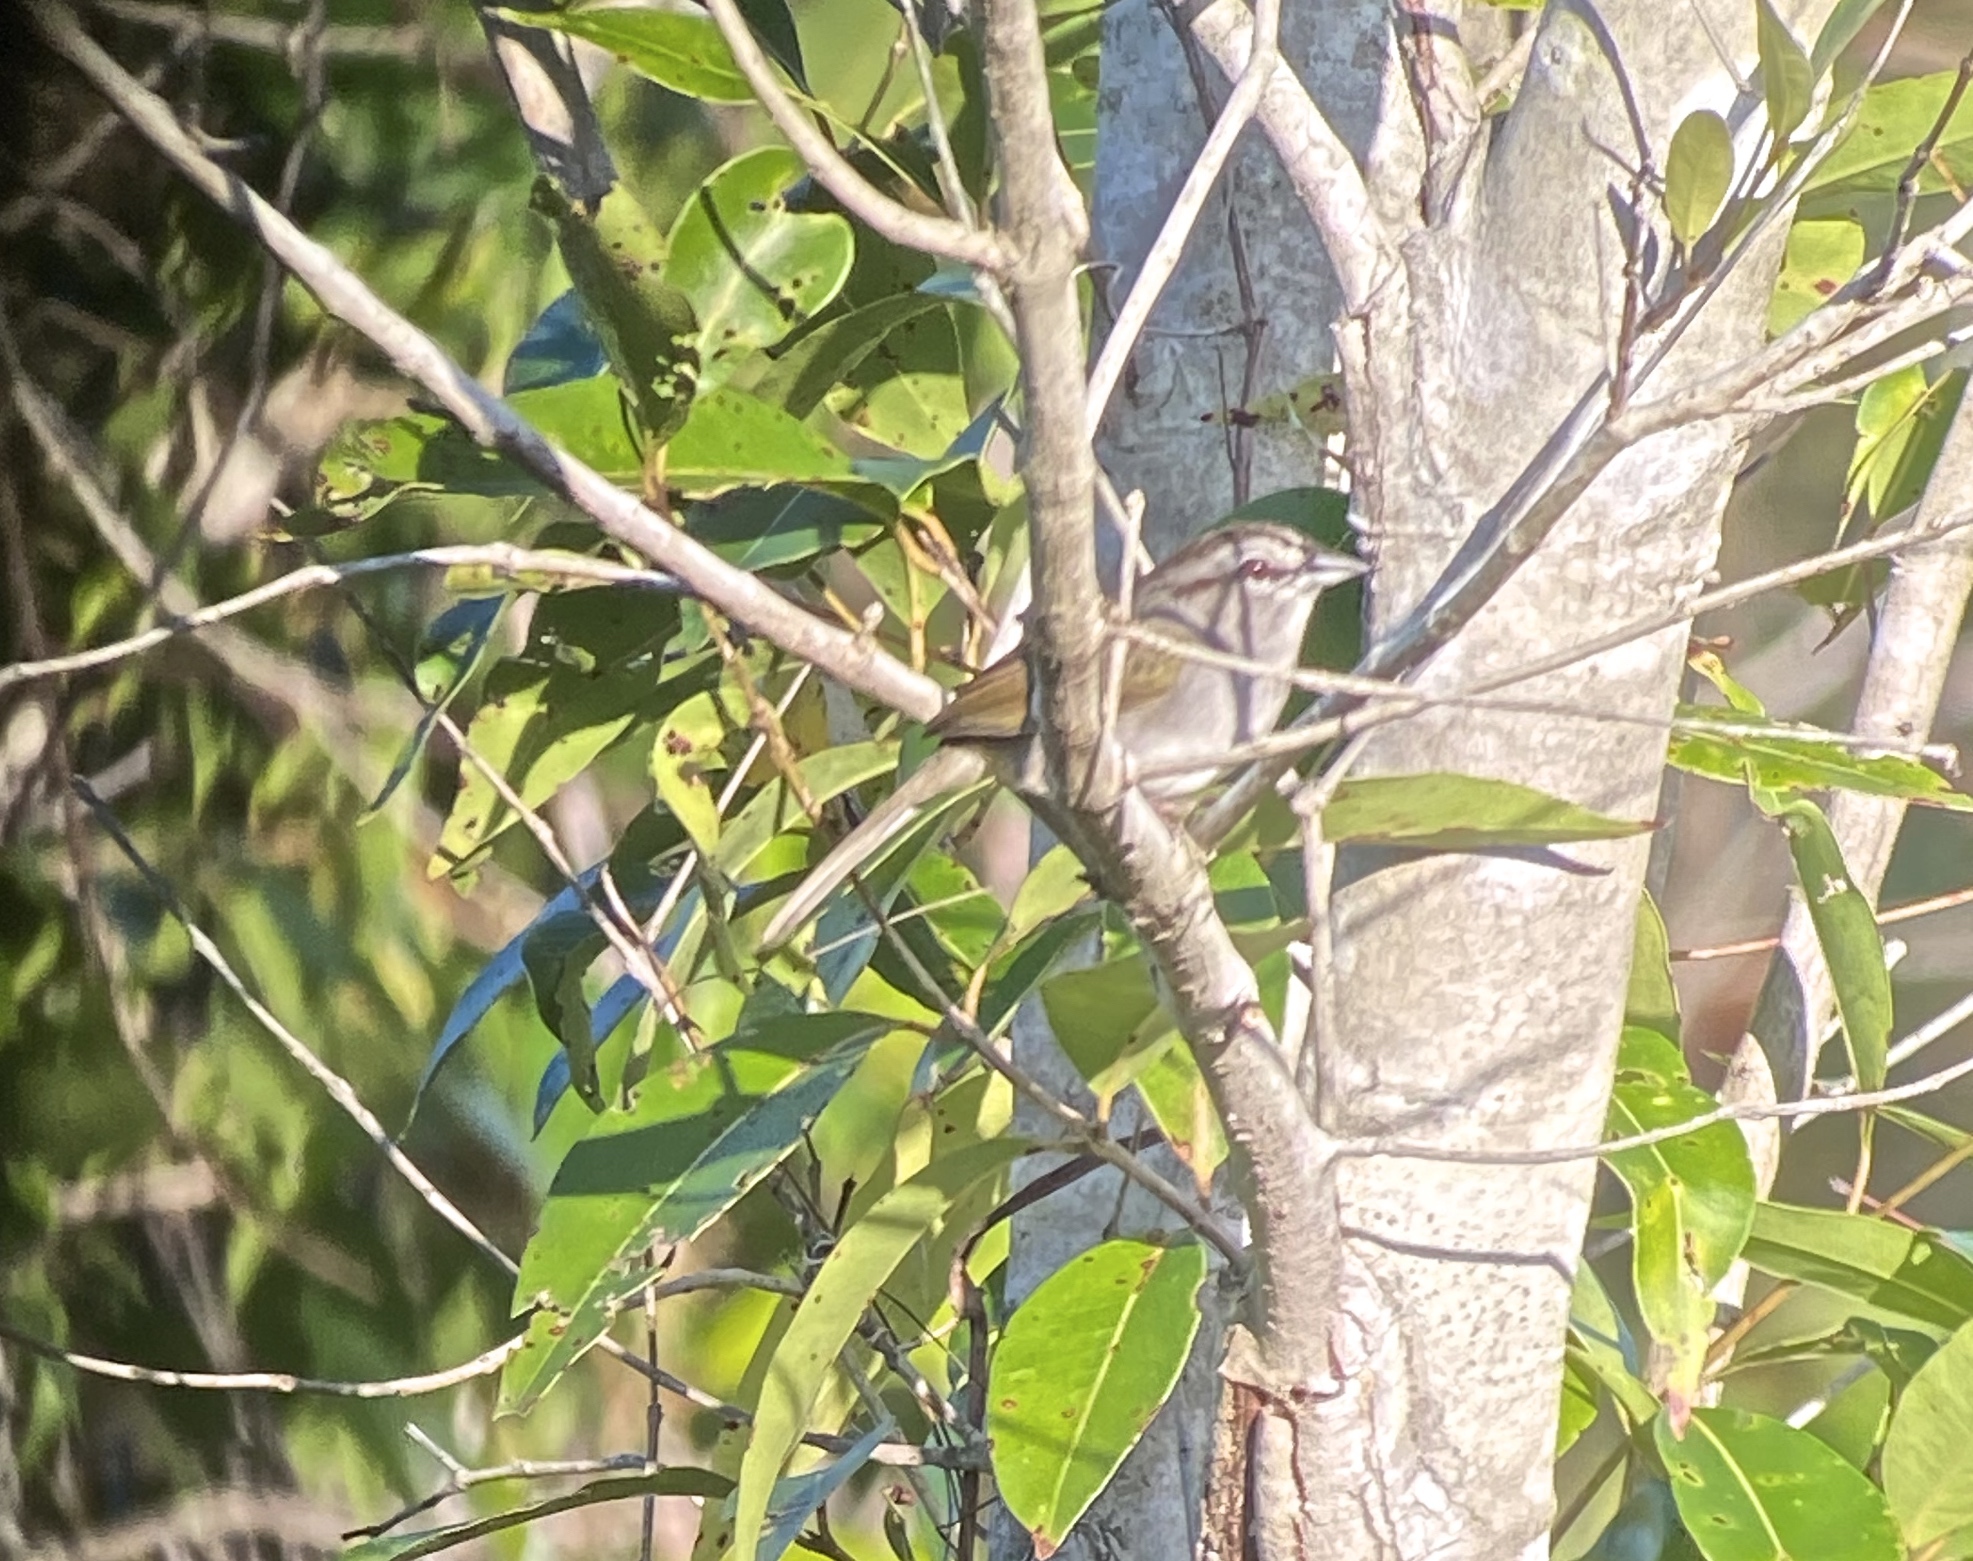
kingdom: Animalia
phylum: Chordata
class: Aves
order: Passeriformes
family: Passerellidae
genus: Arremonops
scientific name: Arremonops rufivirgatus
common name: Olive sparrow
